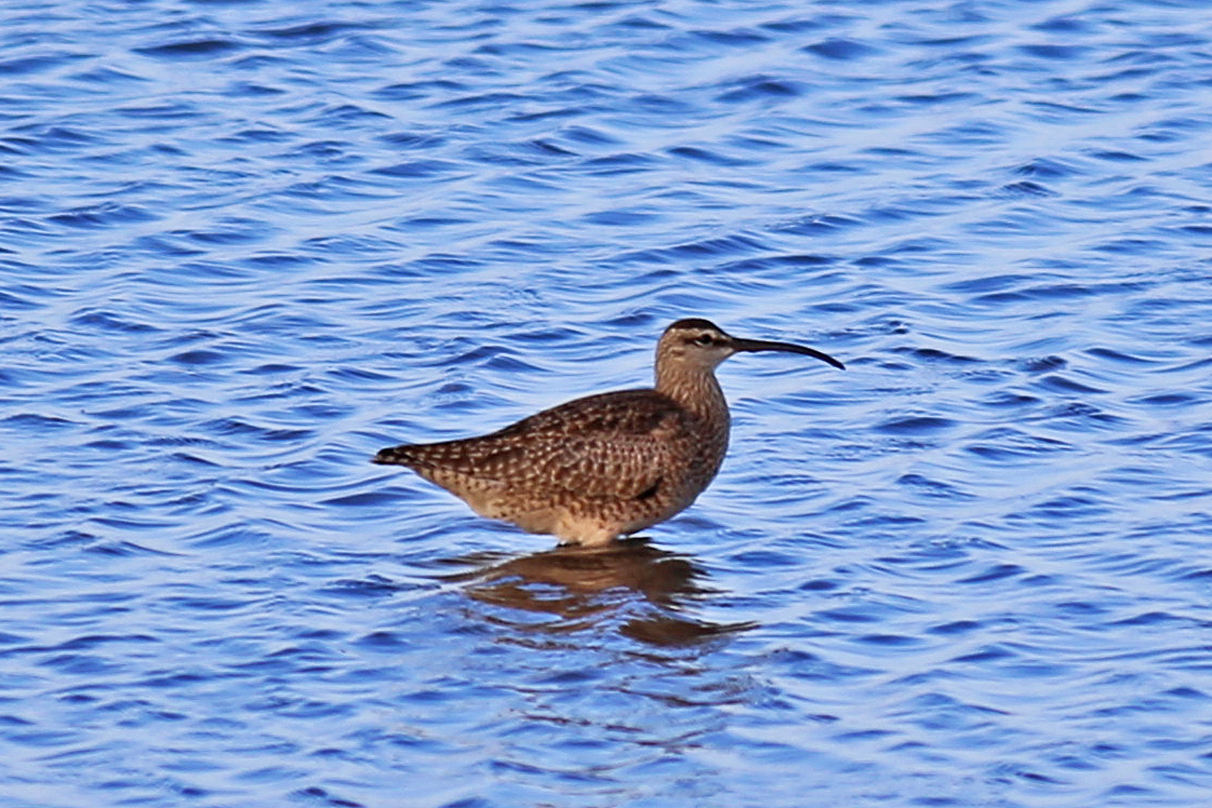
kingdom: Animalia
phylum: Chordata
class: Aves
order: Charadriiformes
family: Scolopacidae
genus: Numenius
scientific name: Numenius phaeopus
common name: Whimbrel
